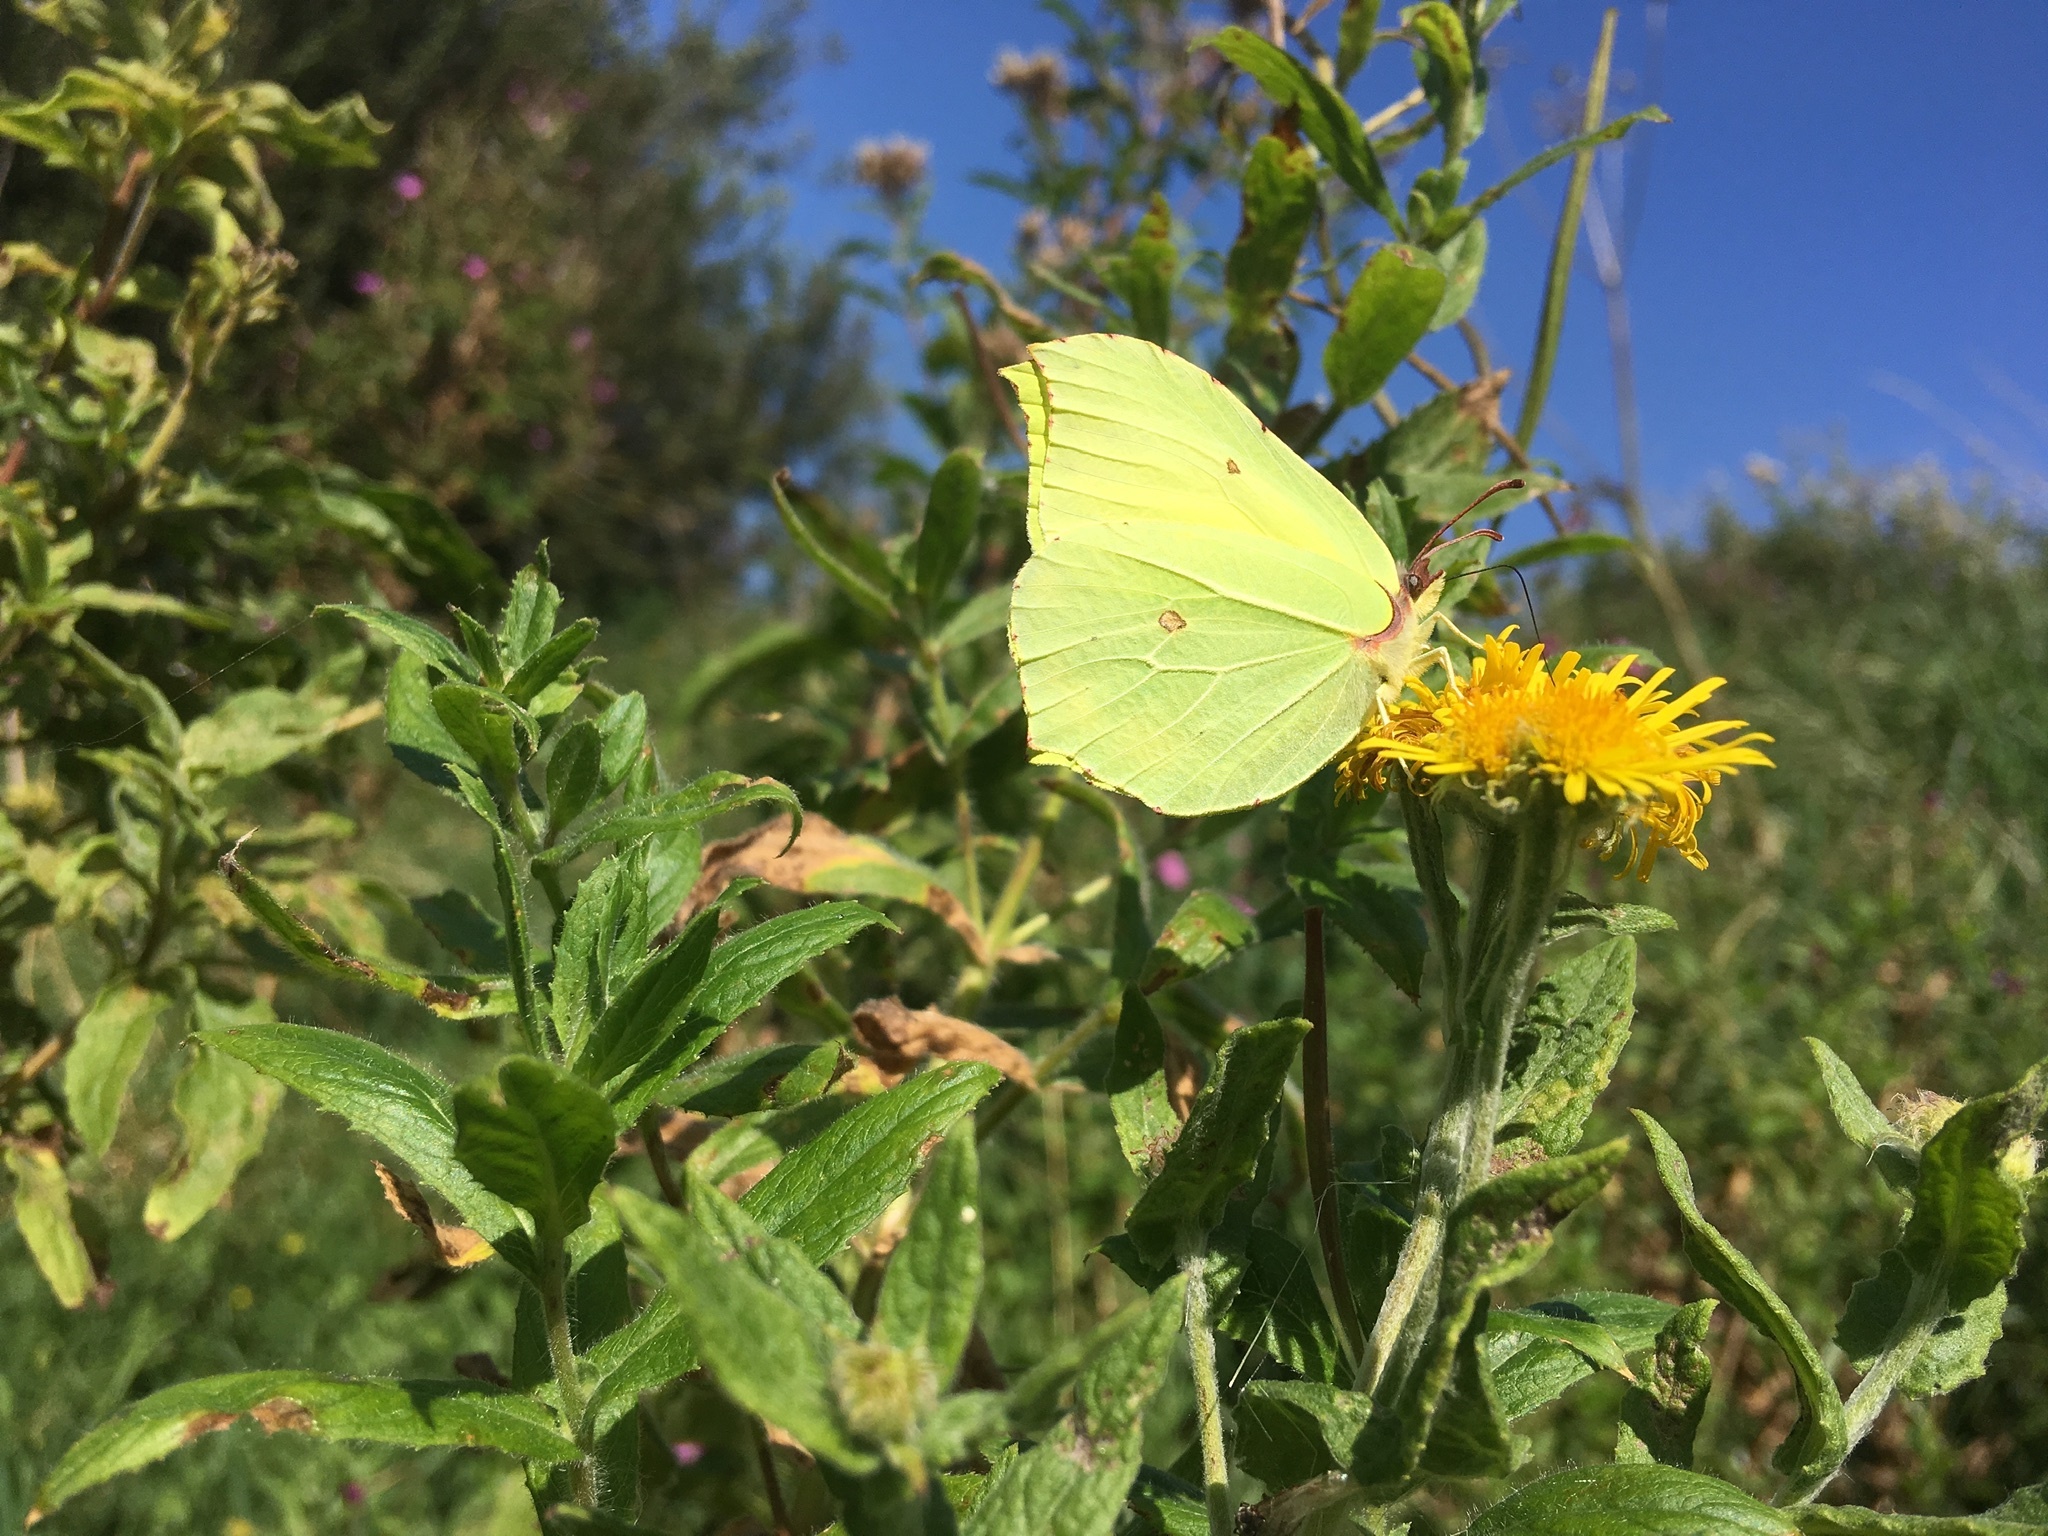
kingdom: Animalia
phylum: Arthropoda
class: Insecta
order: Lepidoptera
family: Pieridae
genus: Gonepteryx
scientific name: Gonepteryx rhamni
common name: Brimstone
